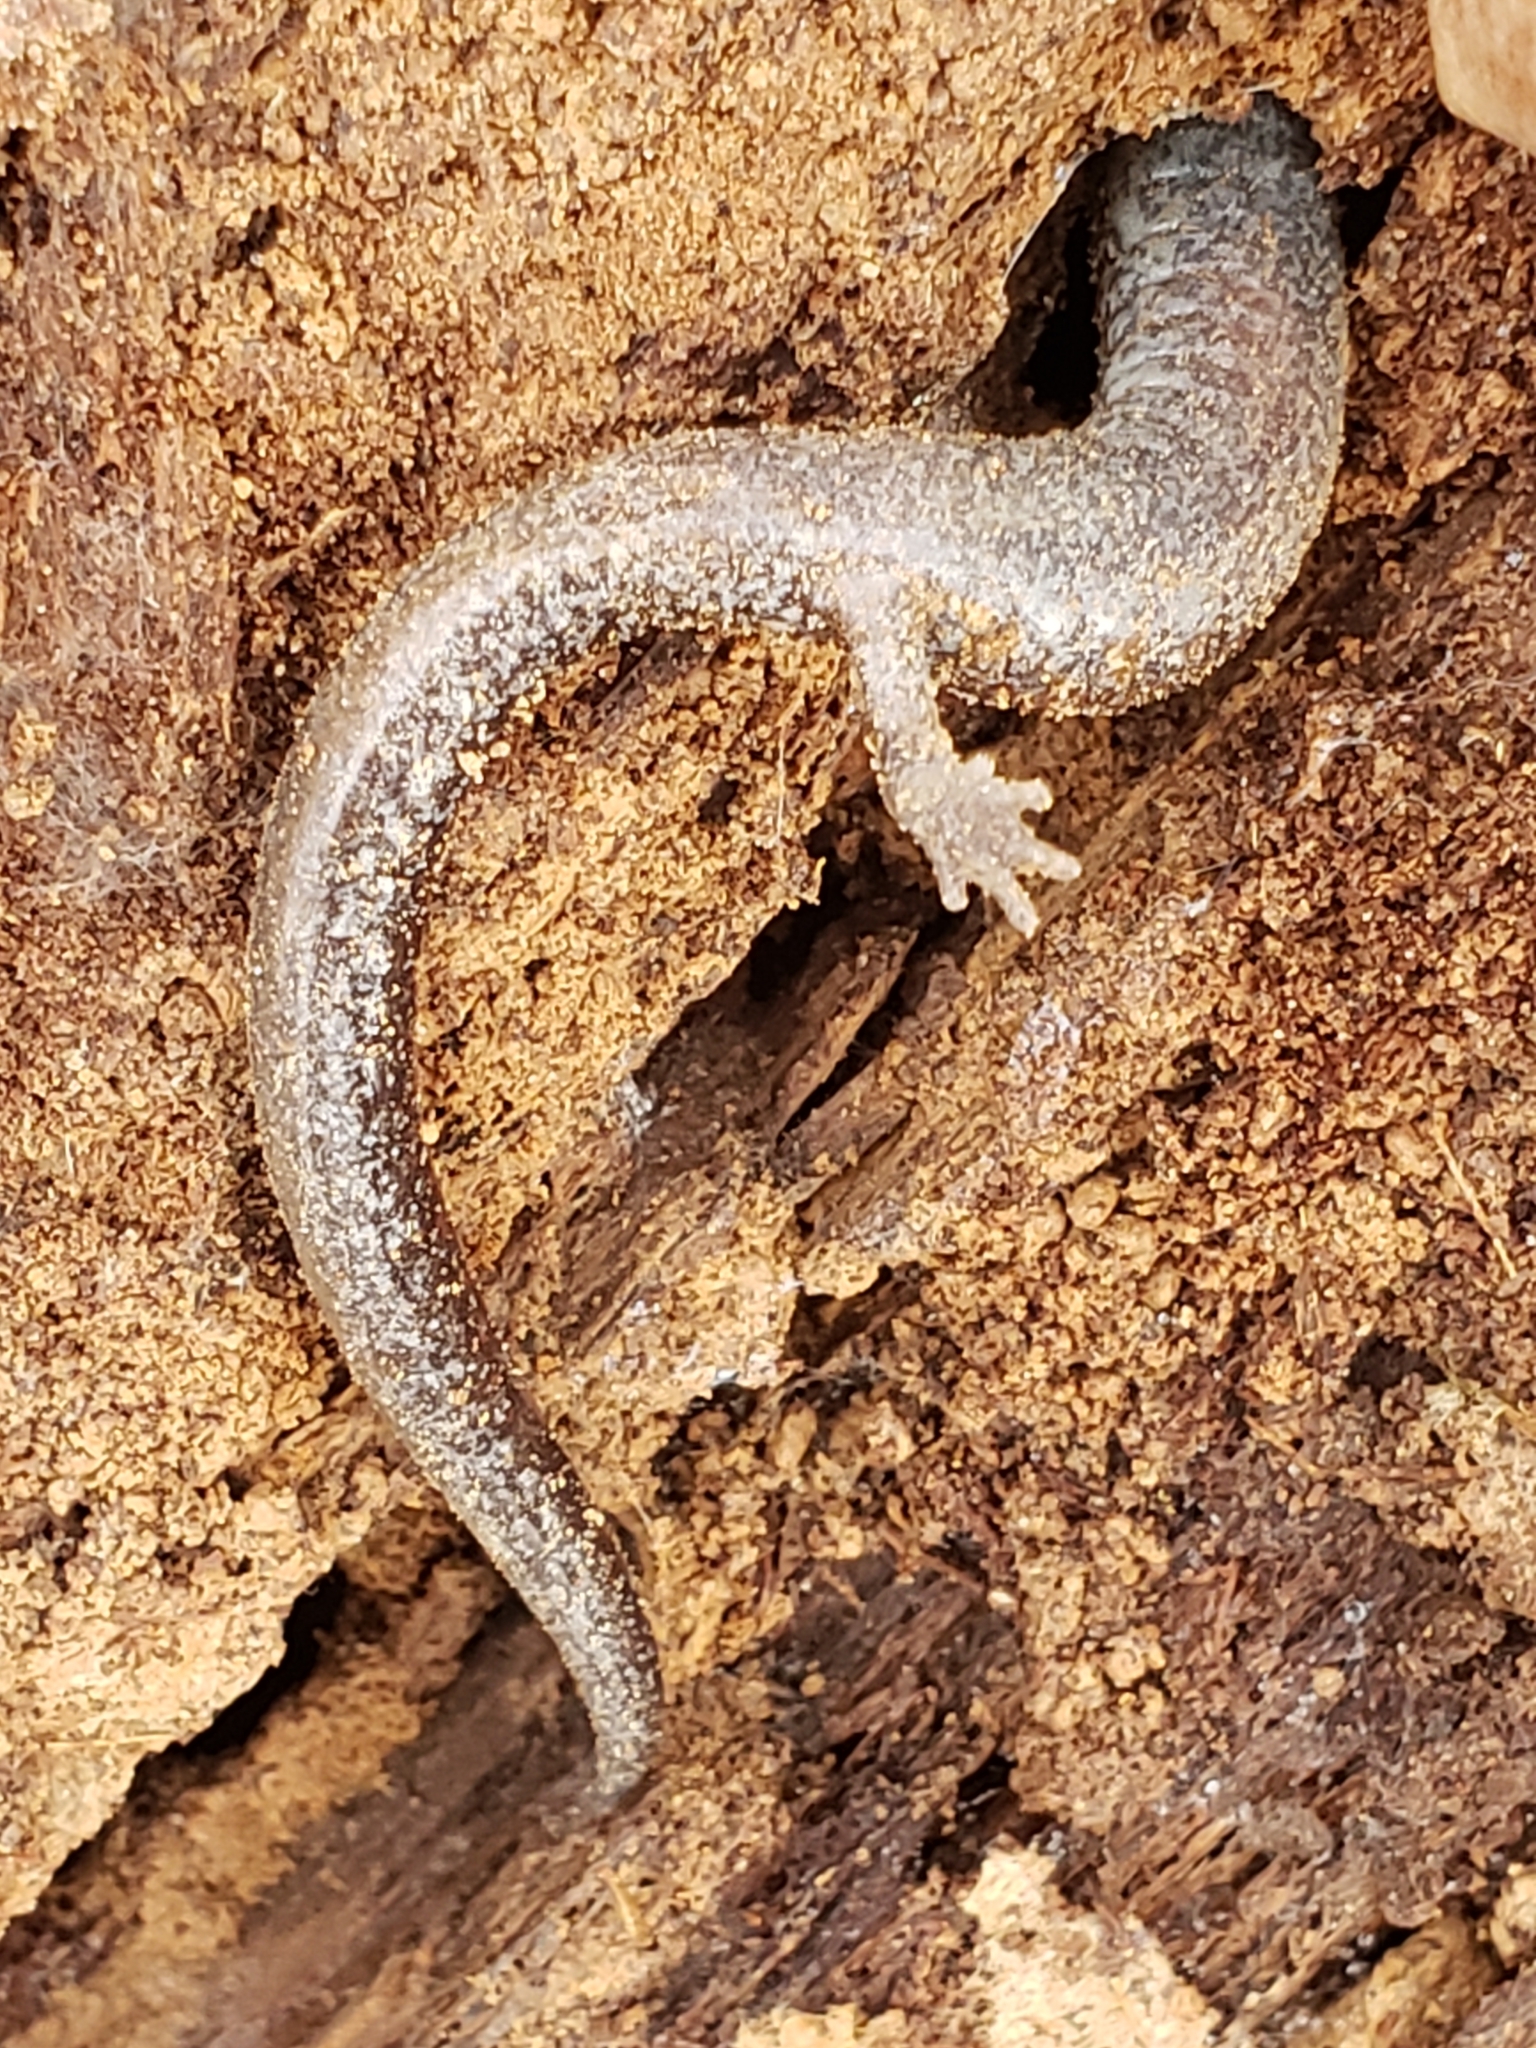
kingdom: Animalia
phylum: Chordata
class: Amphibia
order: Caudata
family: Plethodontidae
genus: Plethodon
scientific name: Plethodon cinereus
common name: Redback salamander
